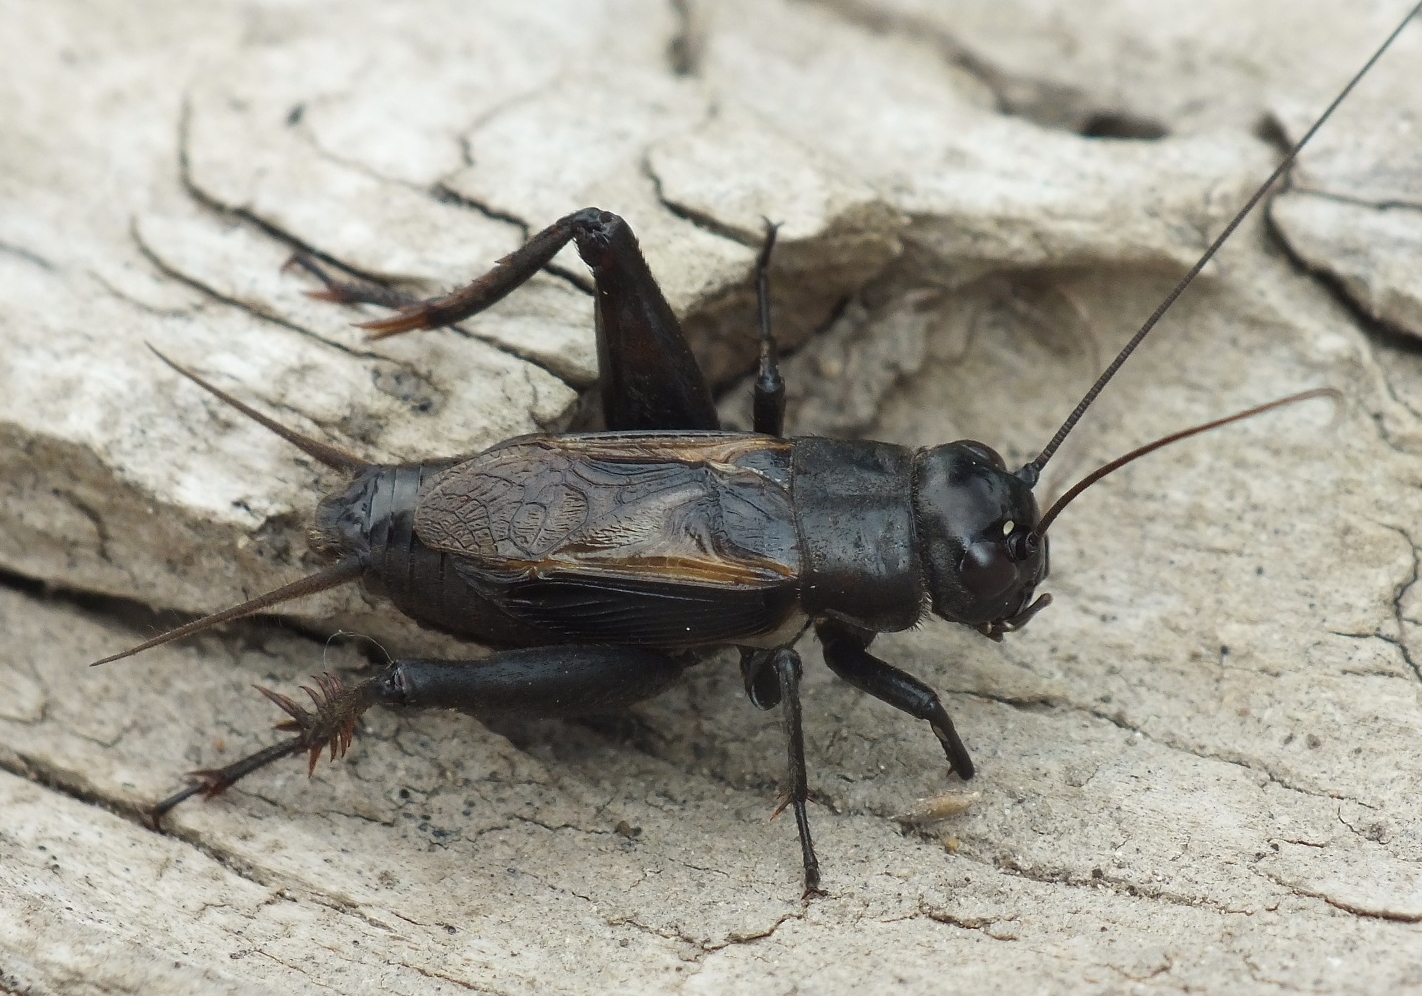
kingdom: Animalia
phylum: Arthropoda
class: Insecta
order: Orthoptera
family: Gryllidae
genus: Melanogryllus
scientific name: Melanogryllus desertus
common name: Desert cricket
